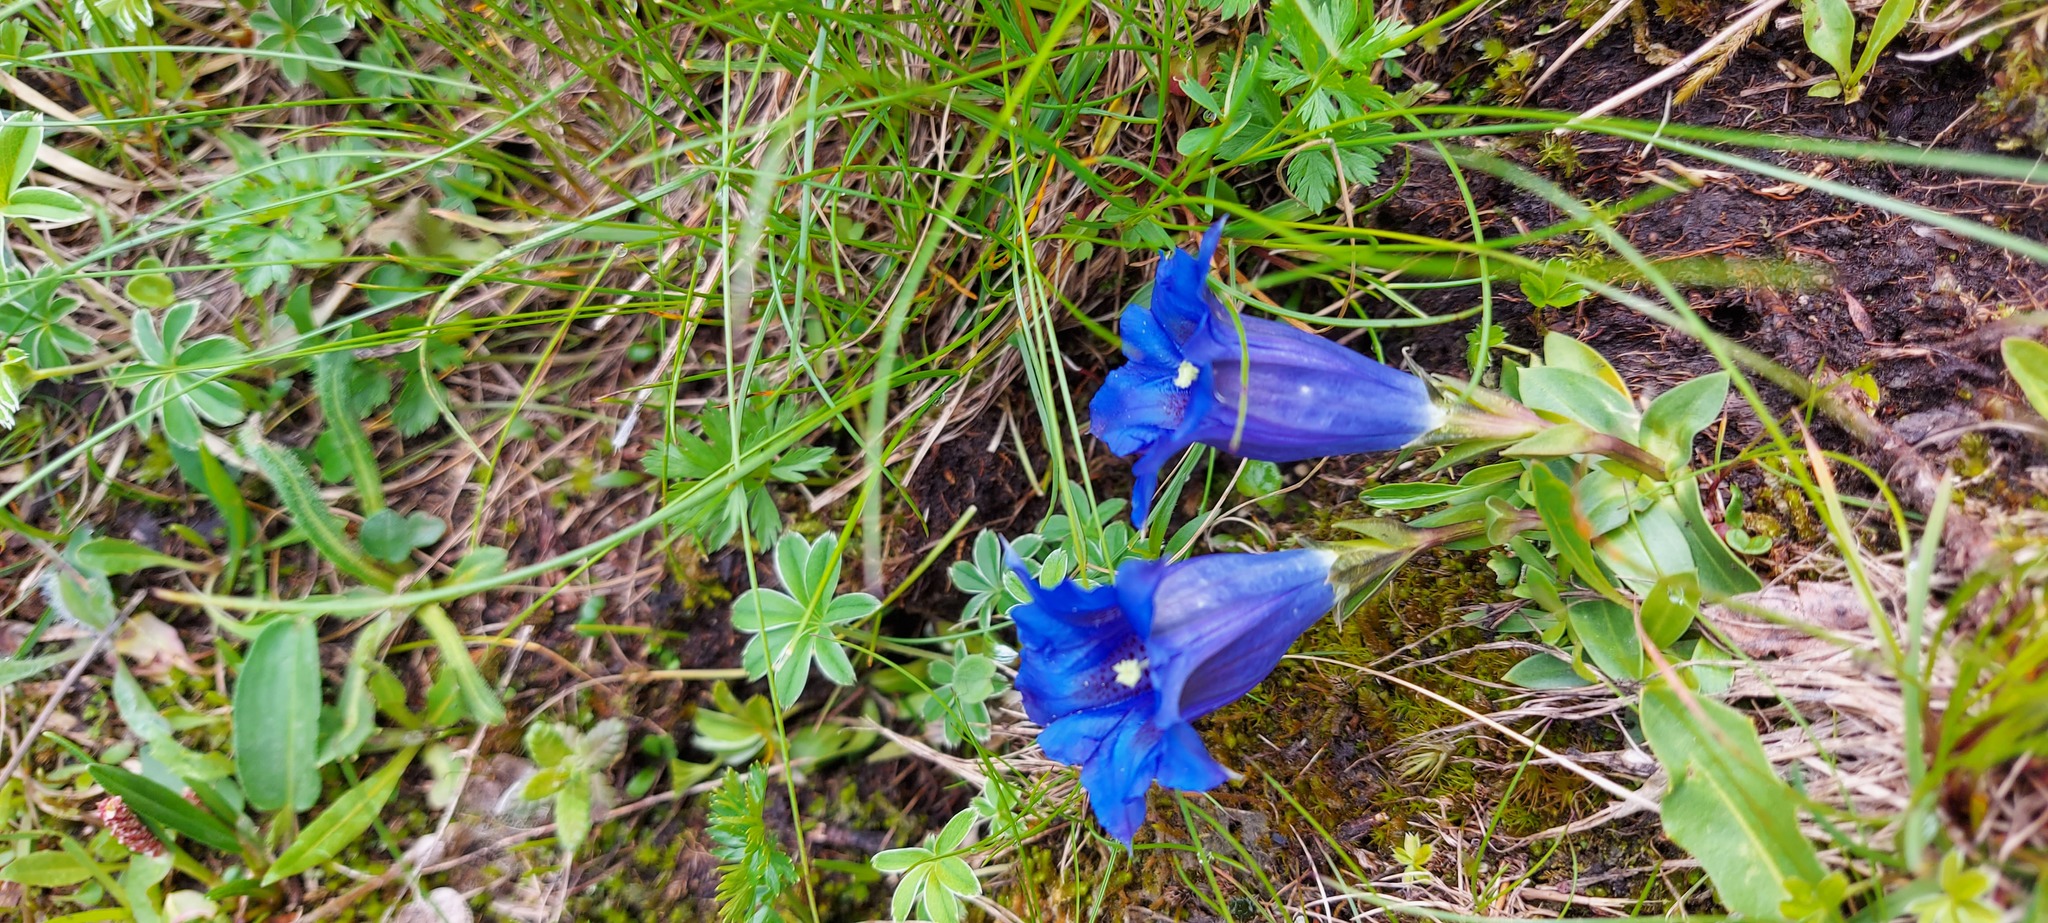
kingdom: Plantae
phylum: Tracheophyta
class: Magnoliopsida
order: Gentianales
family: Gentianaceae
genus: Gentiana
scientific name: Gentiana clusii
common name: Trumpet gentian
